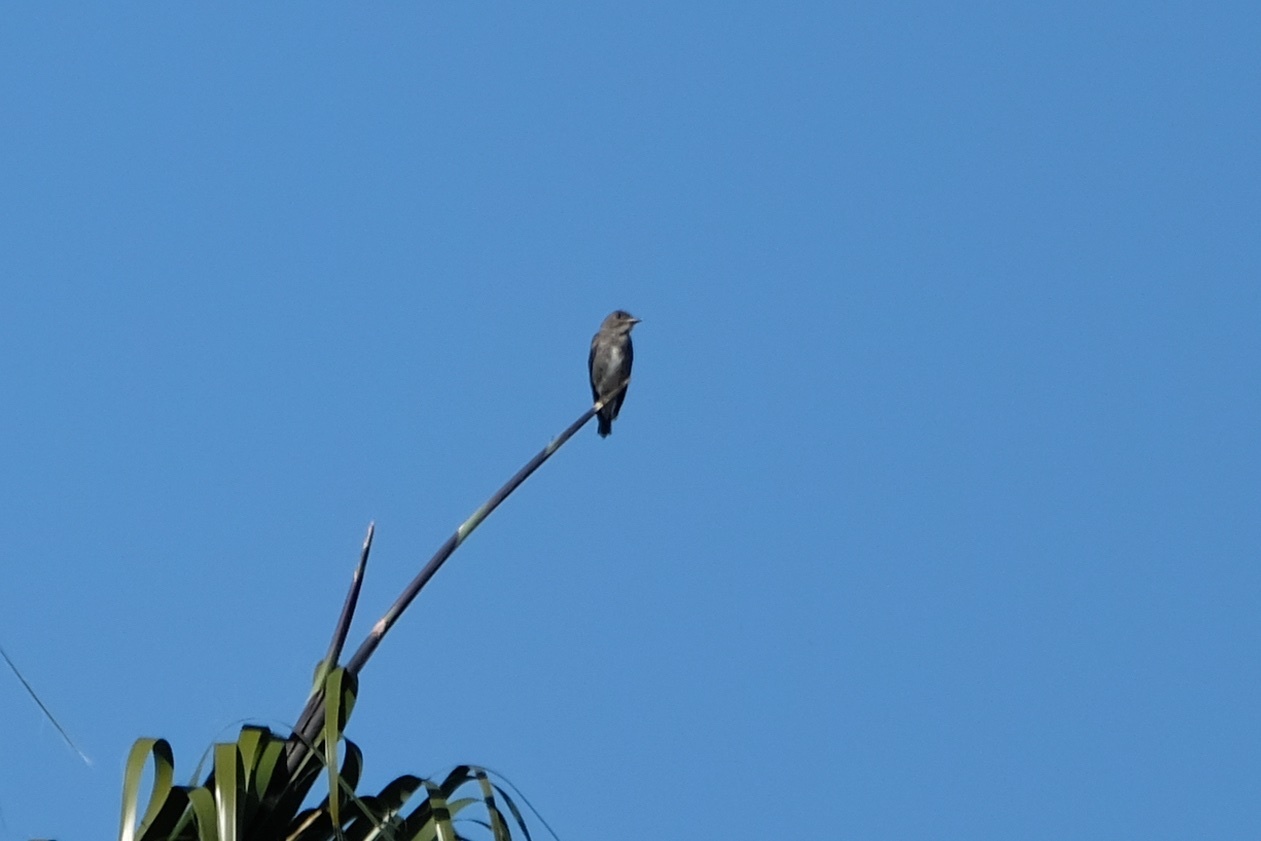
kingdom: Animalia
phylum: Chordata
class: Aves
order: Passeriformes
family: Tyrannidae
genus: Contopus
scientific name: Contopus cooperi
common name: Olive-sided flycatcher
